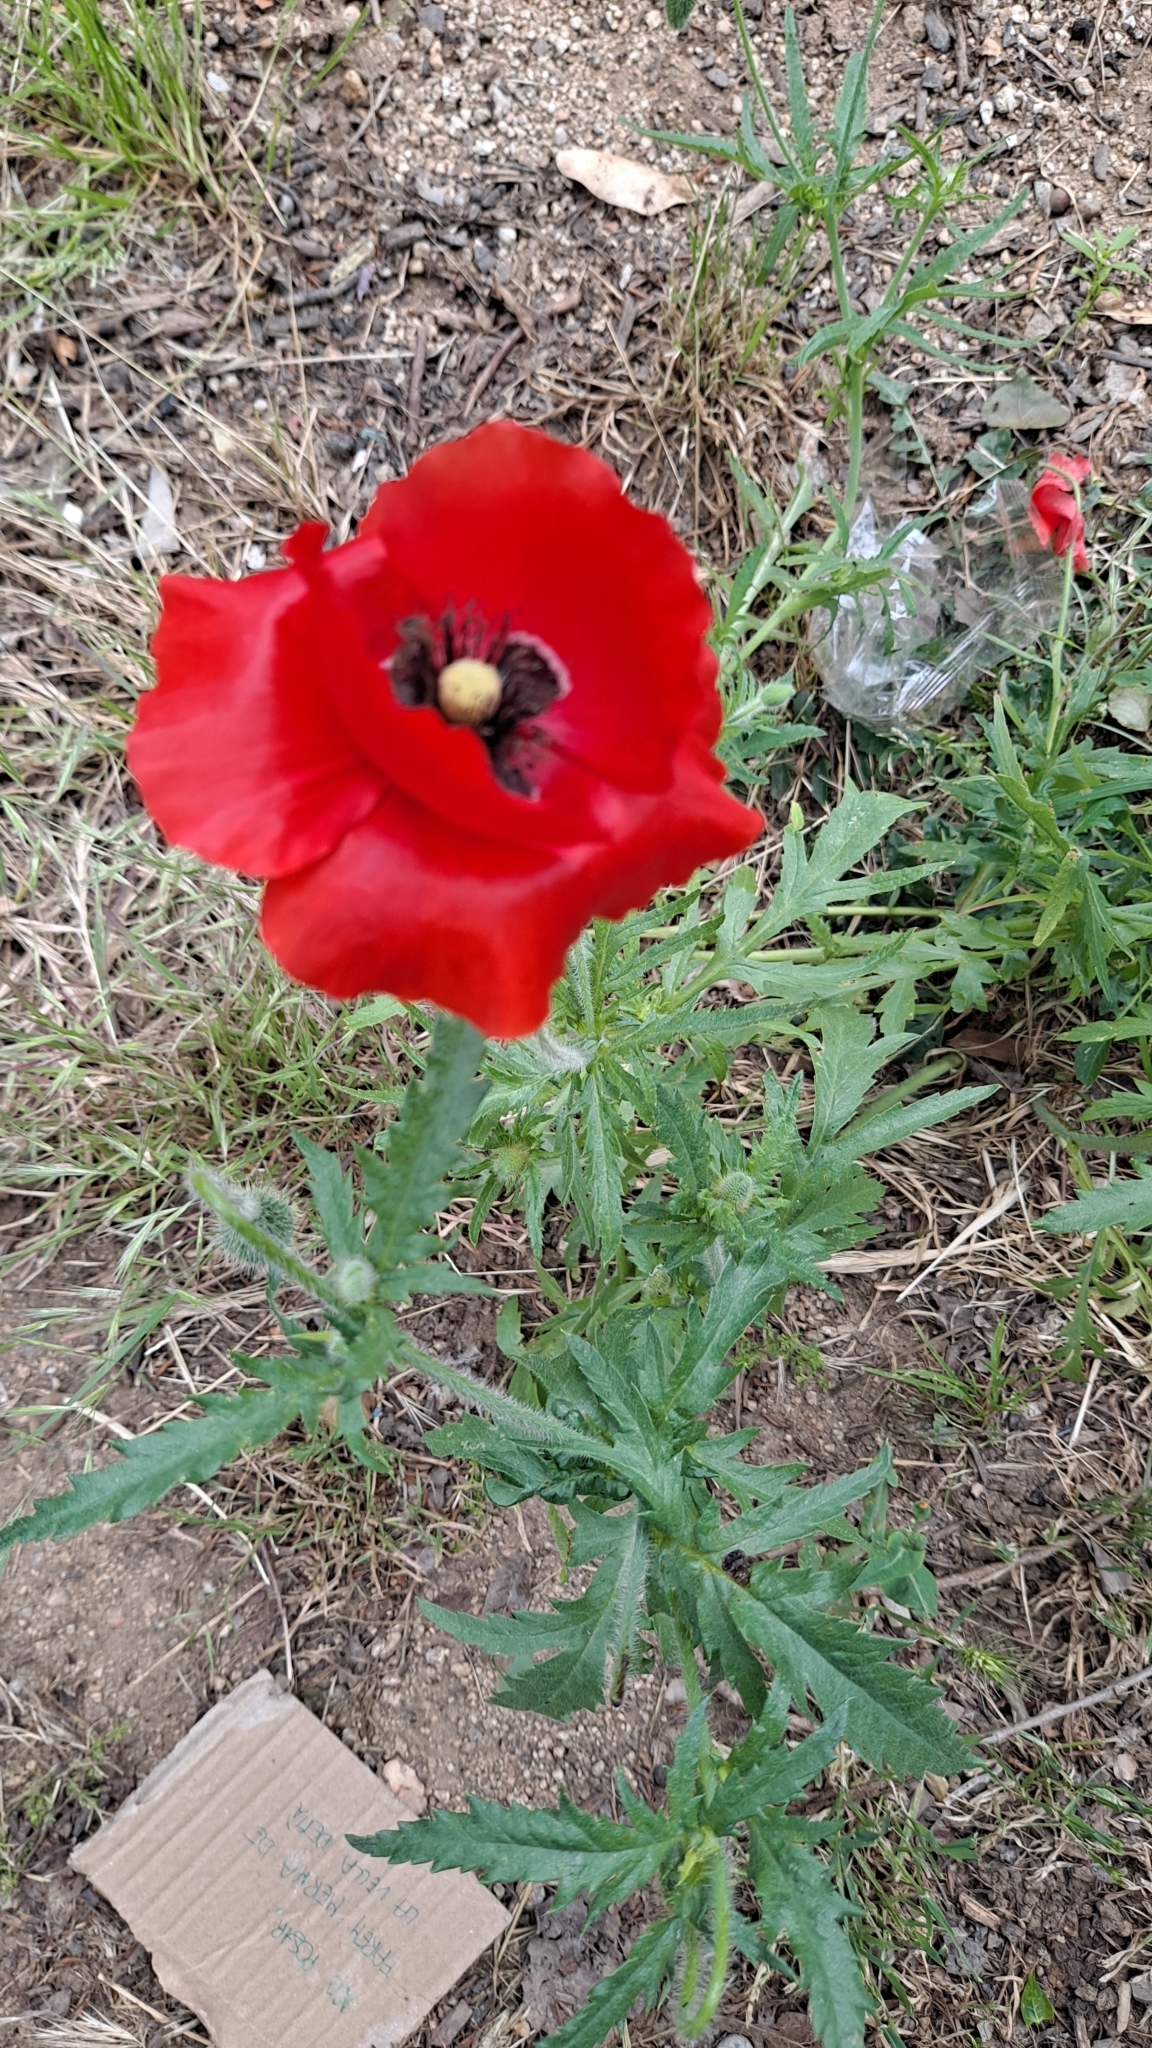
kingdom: Plantae
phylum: Tracheophyta
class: Magnoliopsida
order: Ranunculales
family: Papaveraceae
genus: Papaver
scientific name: Papaver rhoeas
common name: Corn poppy
